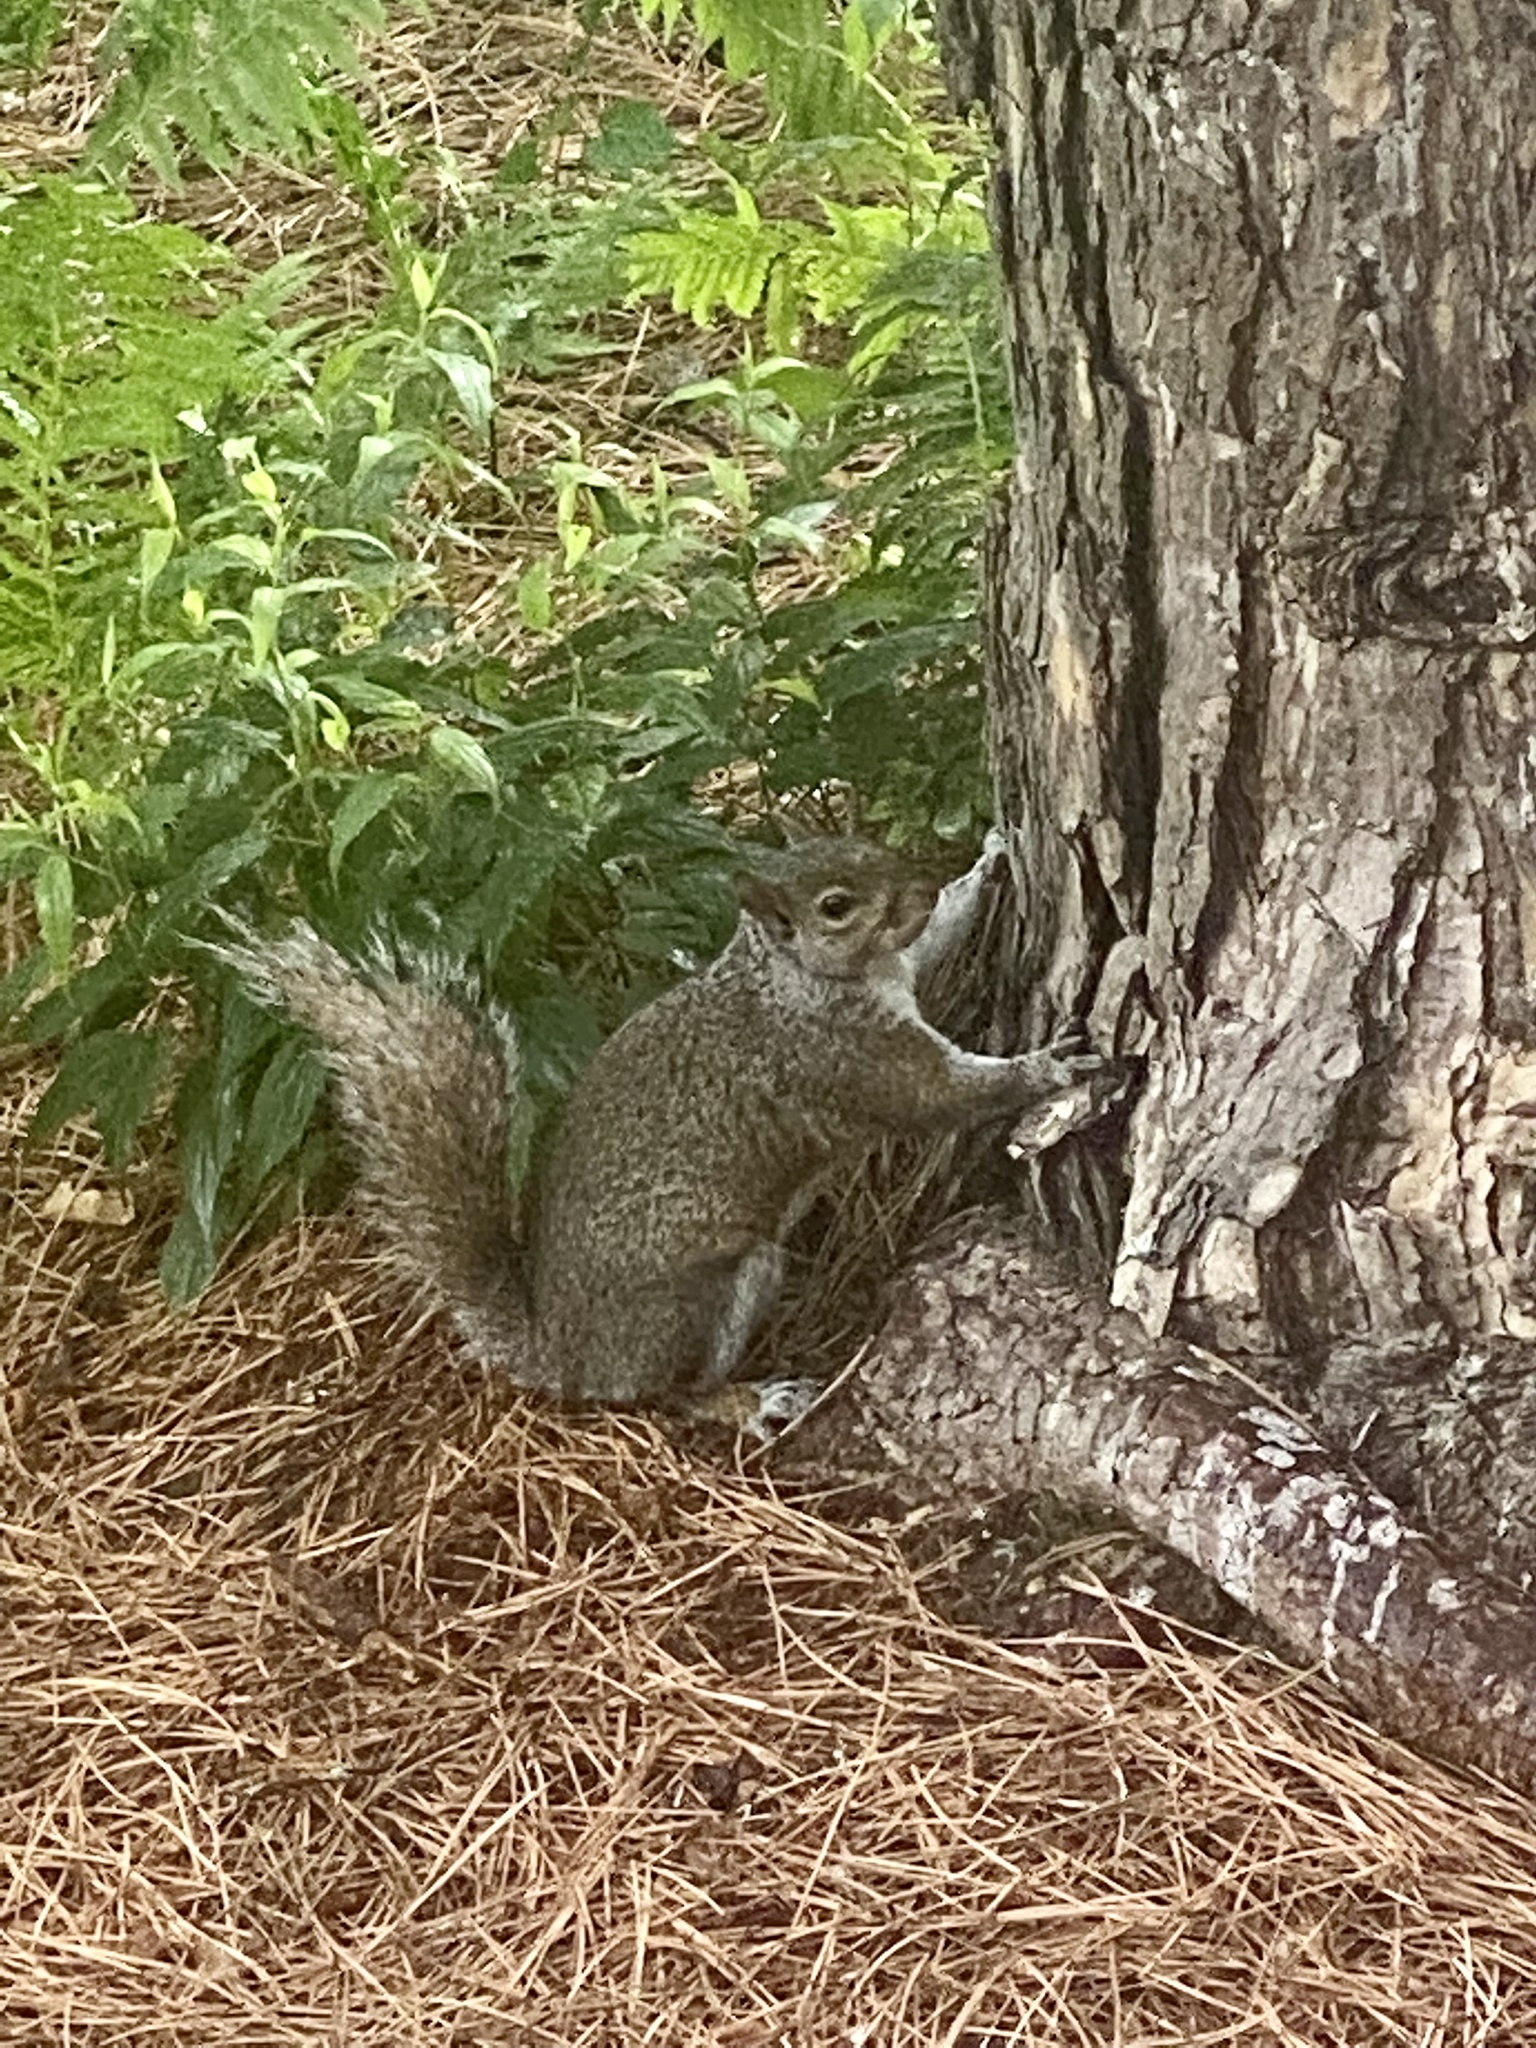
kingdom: Animalia
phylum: Chordata
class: Mammalia
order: Rodentia
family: Sciuridae
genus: Sciurus
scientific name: Sciurus carolinensis
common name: Eastern gray squirrel
